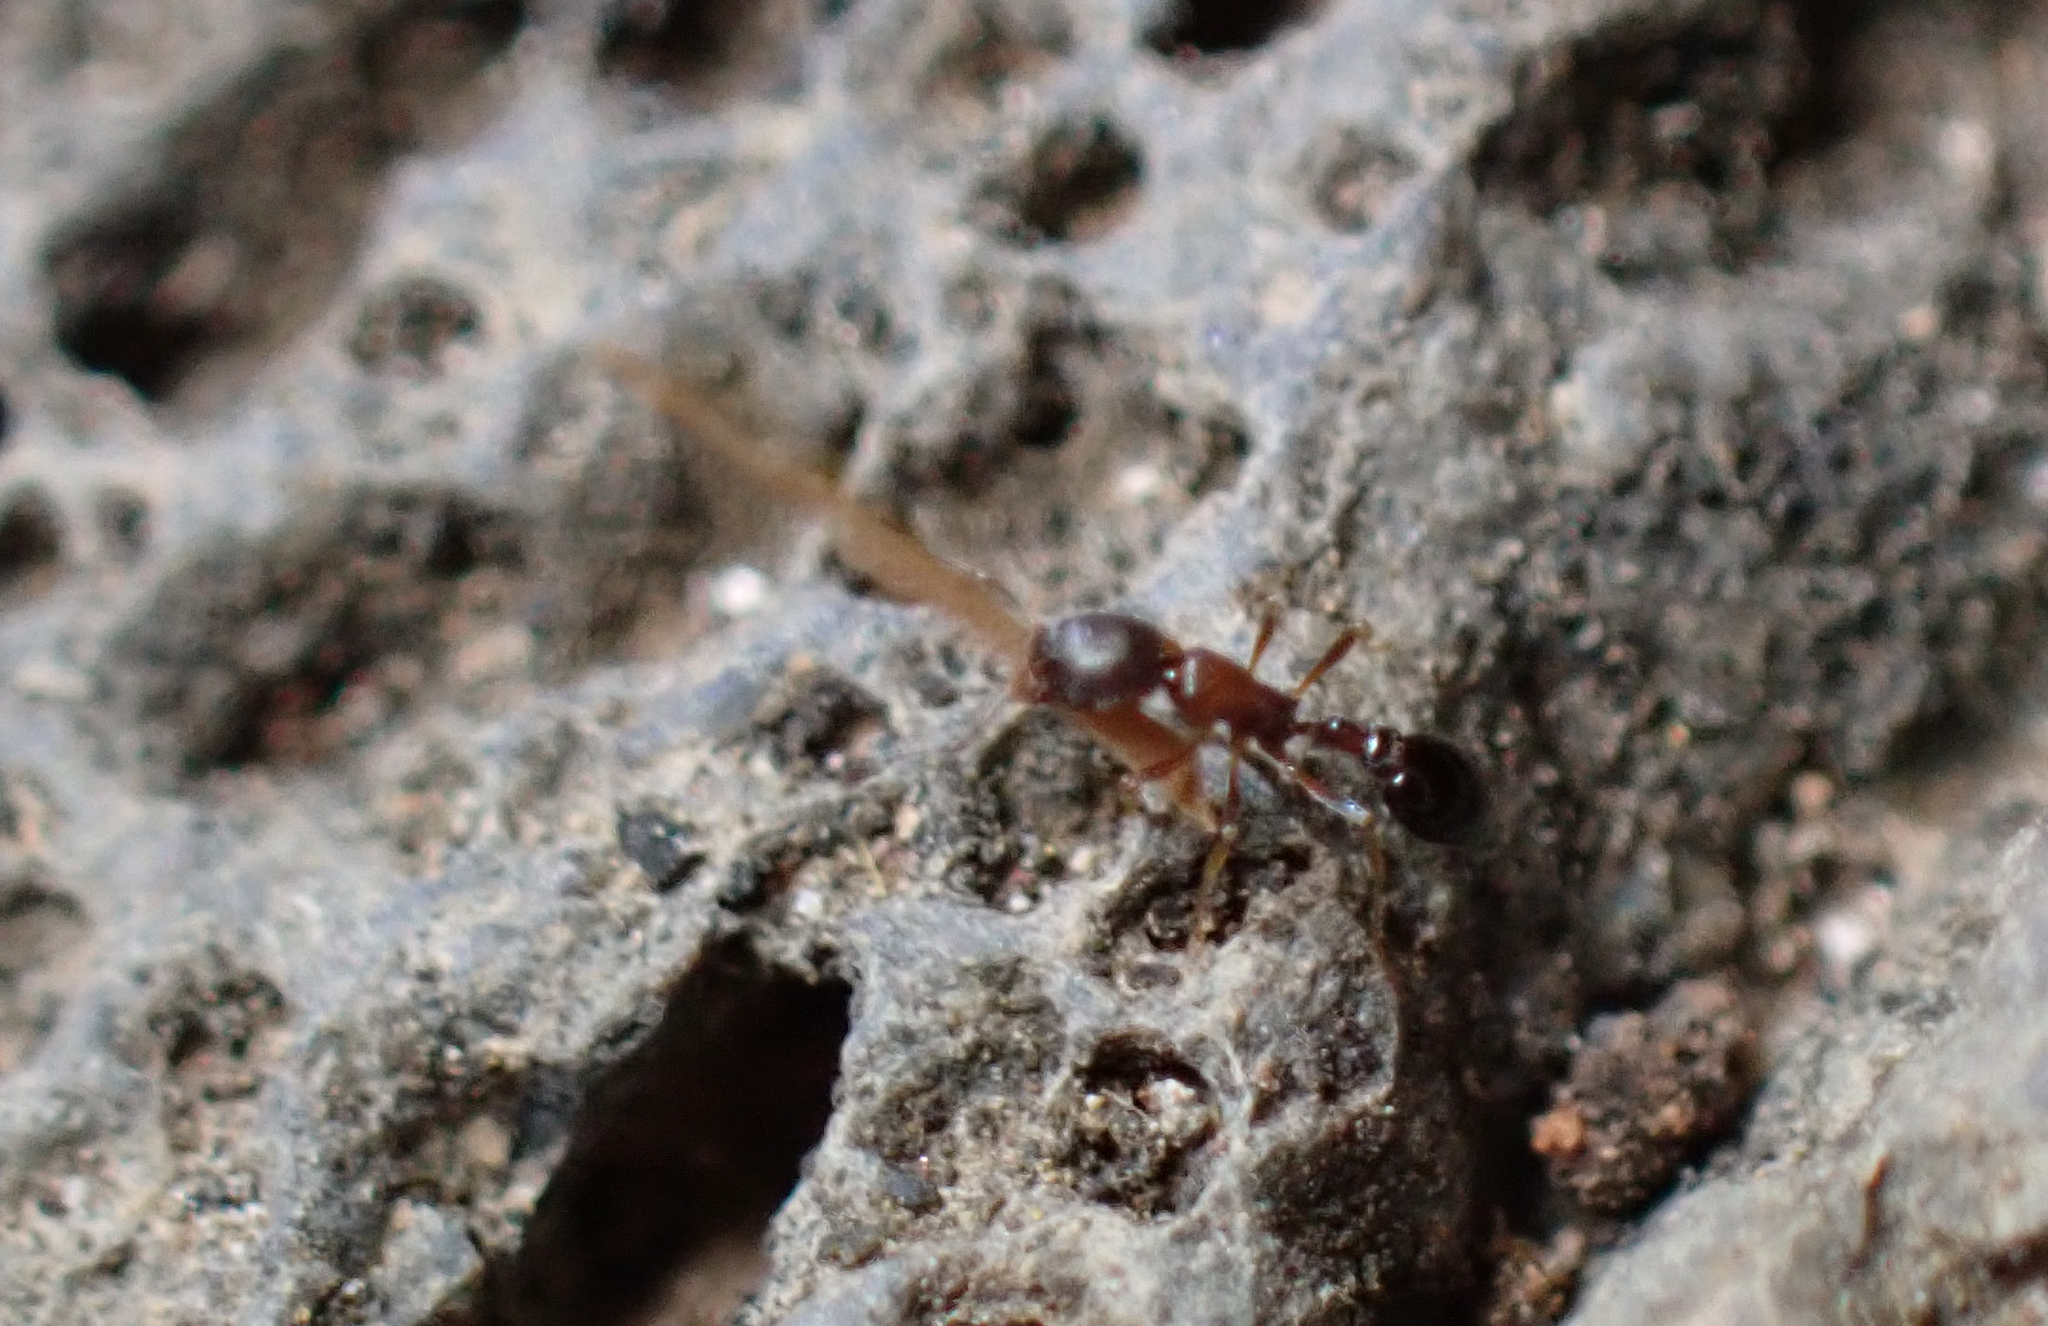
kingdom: Animalia
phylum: Arthropoda
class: Insecta
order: Hymenoptera
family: Formicidae
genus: Cardiocondyla
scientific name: Cardiocondyla mauritanica
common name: Sneaking ant
